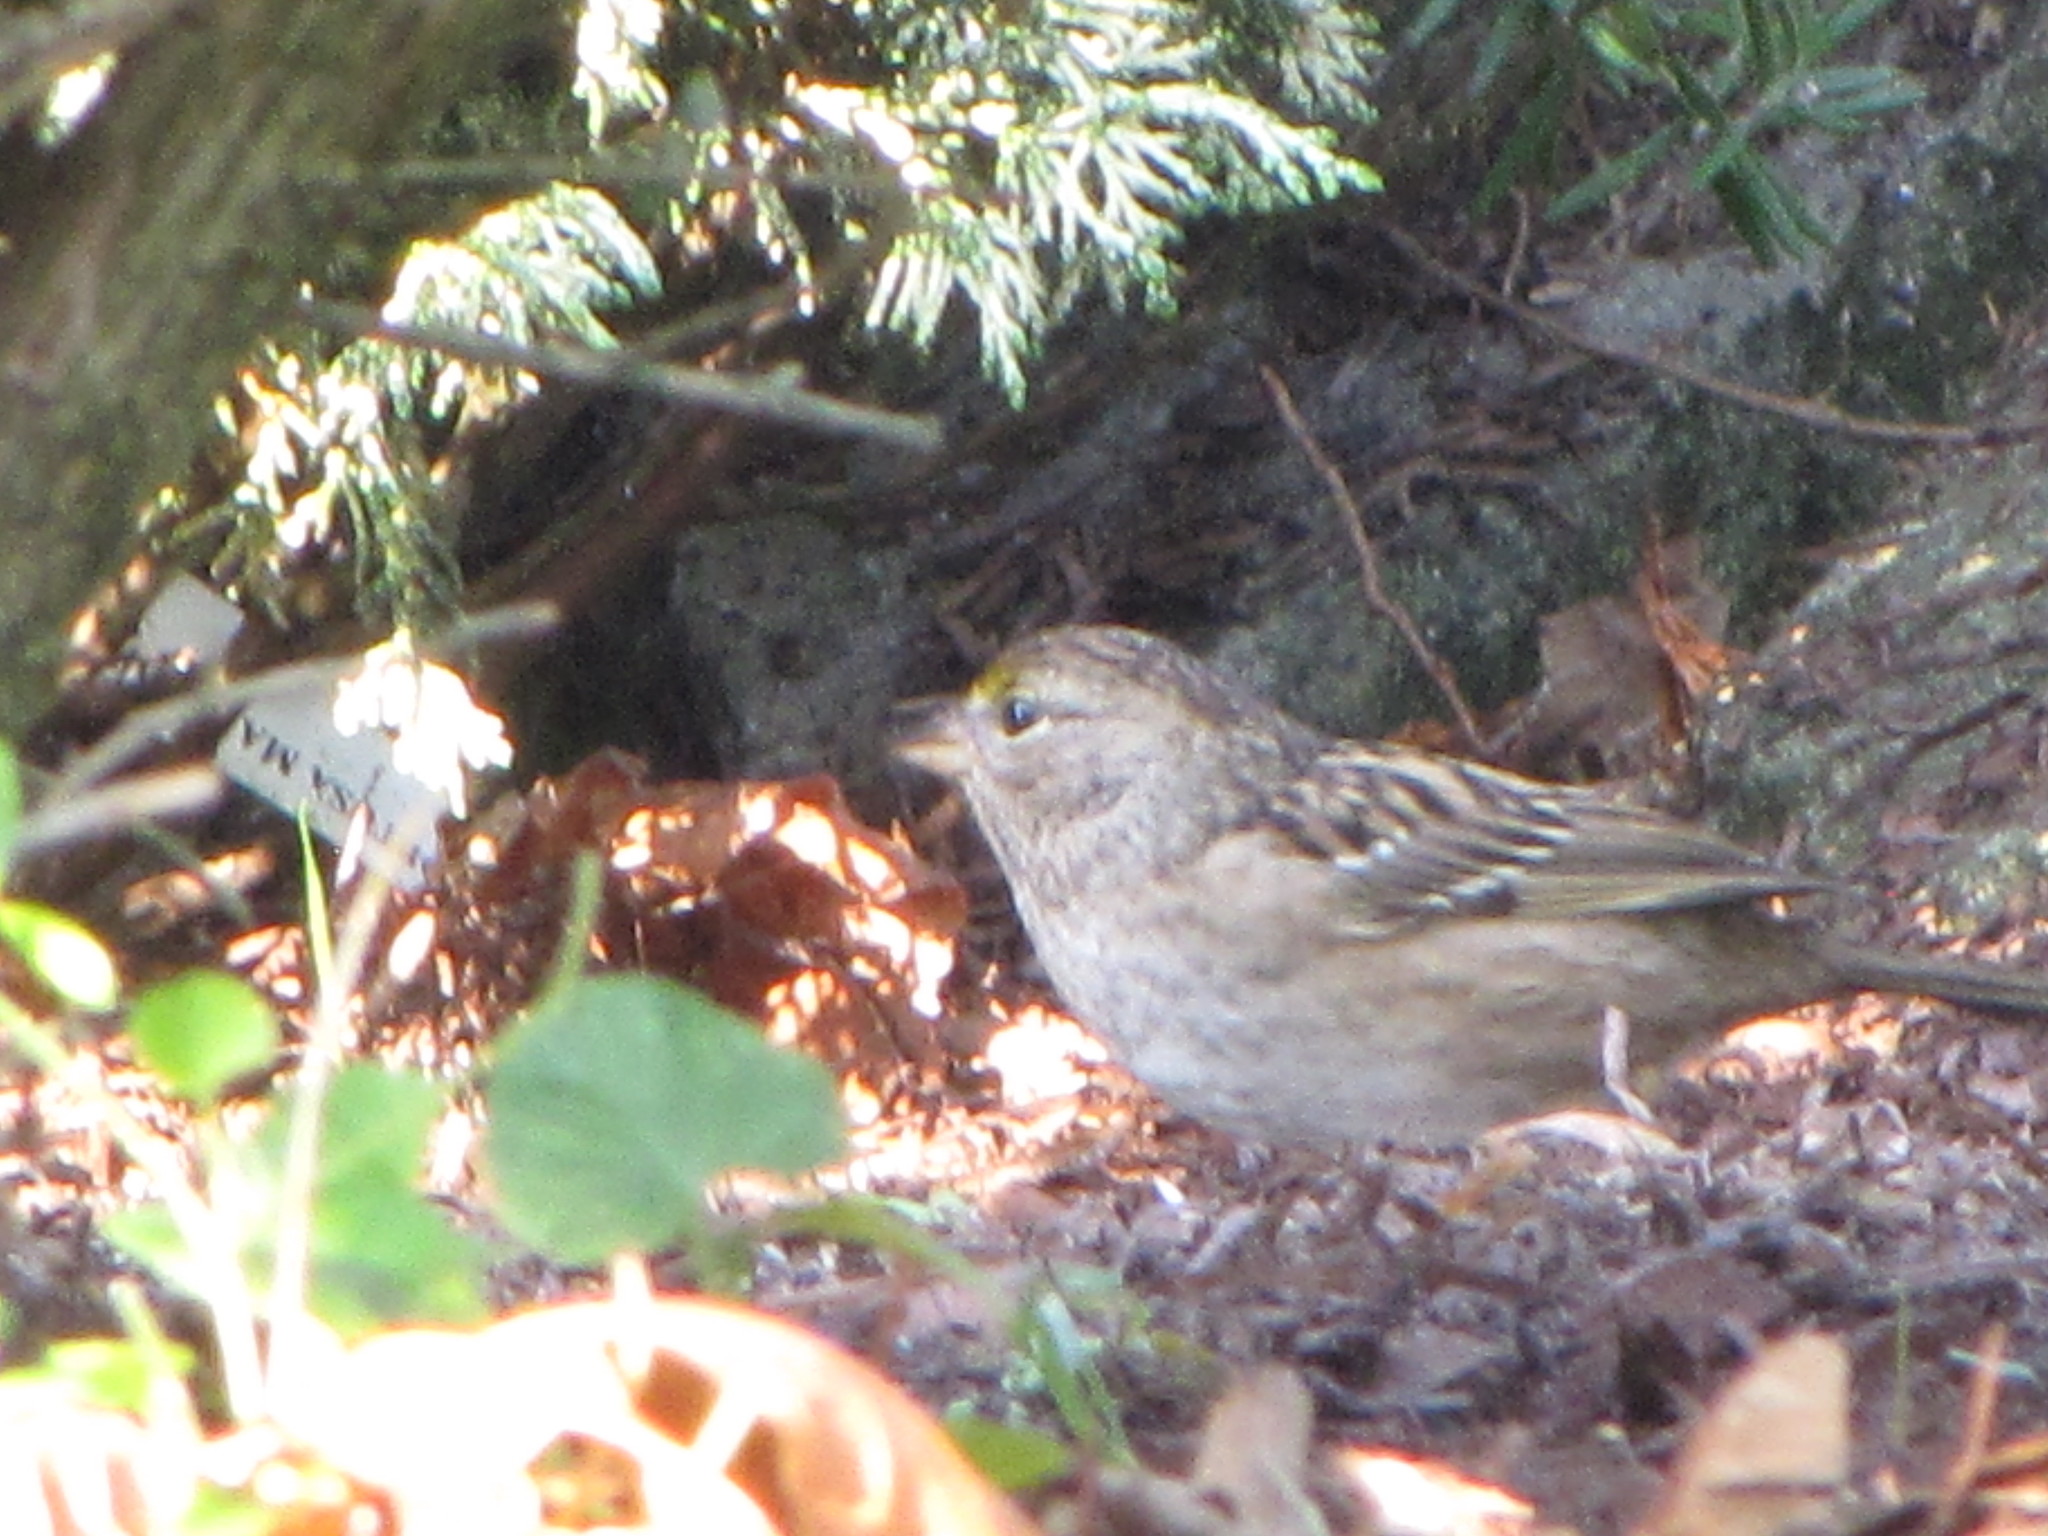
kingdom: Animalia
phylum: Chordata
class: Aves
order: Passeriformes
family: Passerellidae
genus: Zonotrichia
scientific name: Zonotrichia atricapilla
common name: Golden-crowned sparrow
